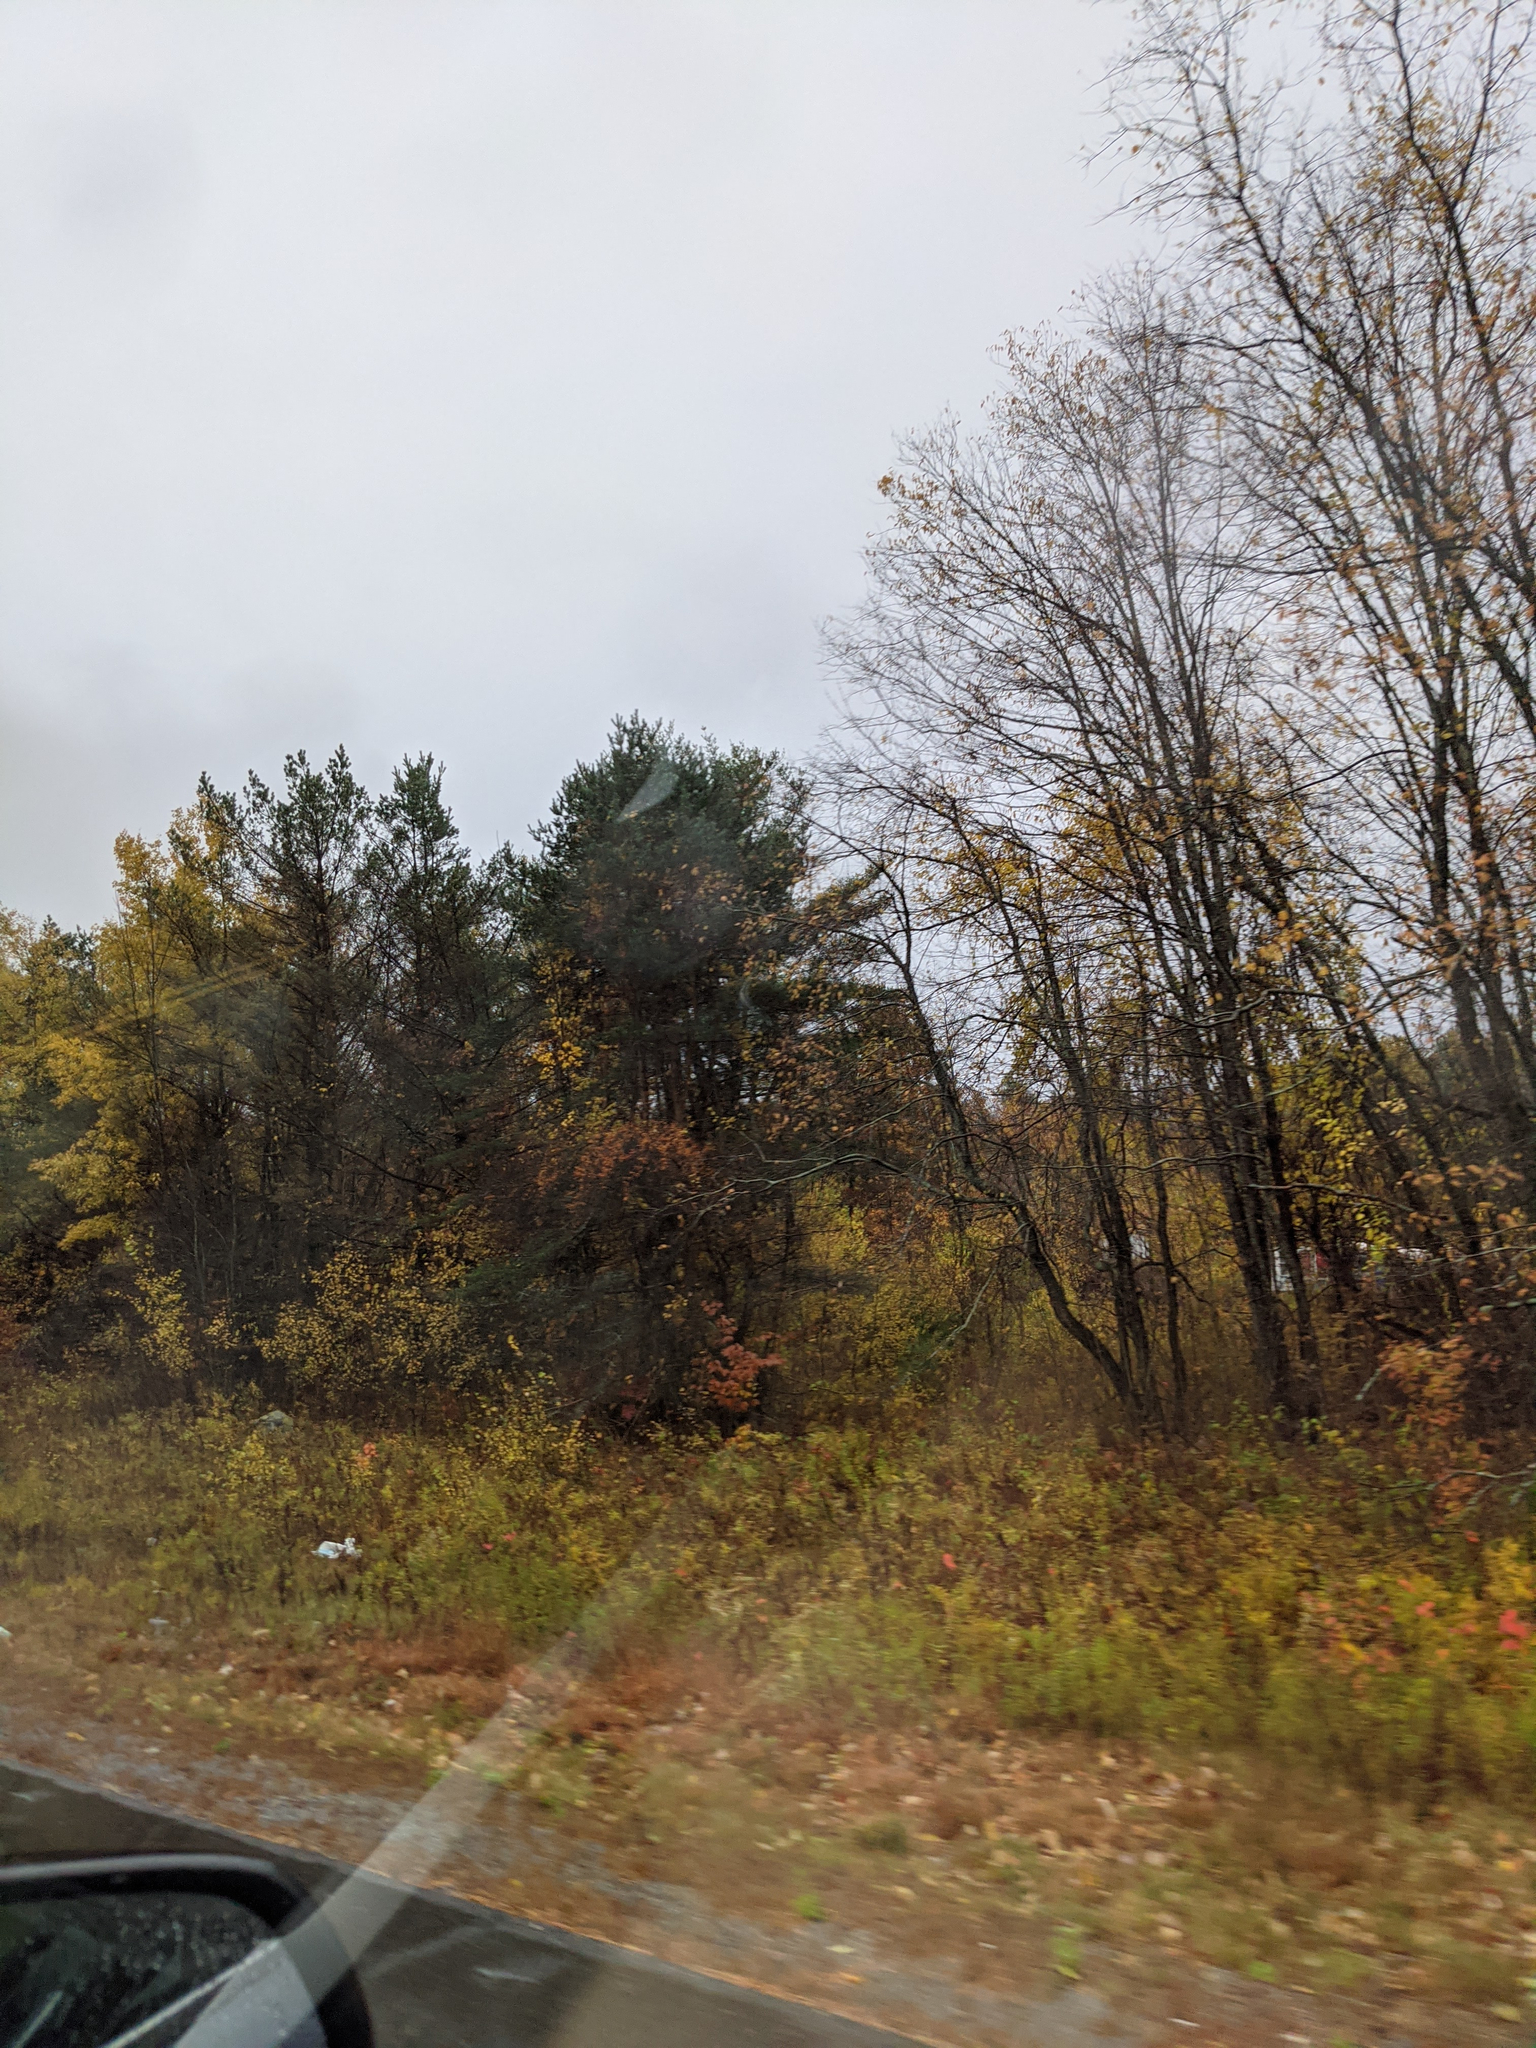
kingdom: Plantae
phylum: Tracheophyta
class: Pinopsida
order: Pinales
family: Pinaceae
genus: Pinus
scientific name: Pinus strobus
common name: Weymouth pine
